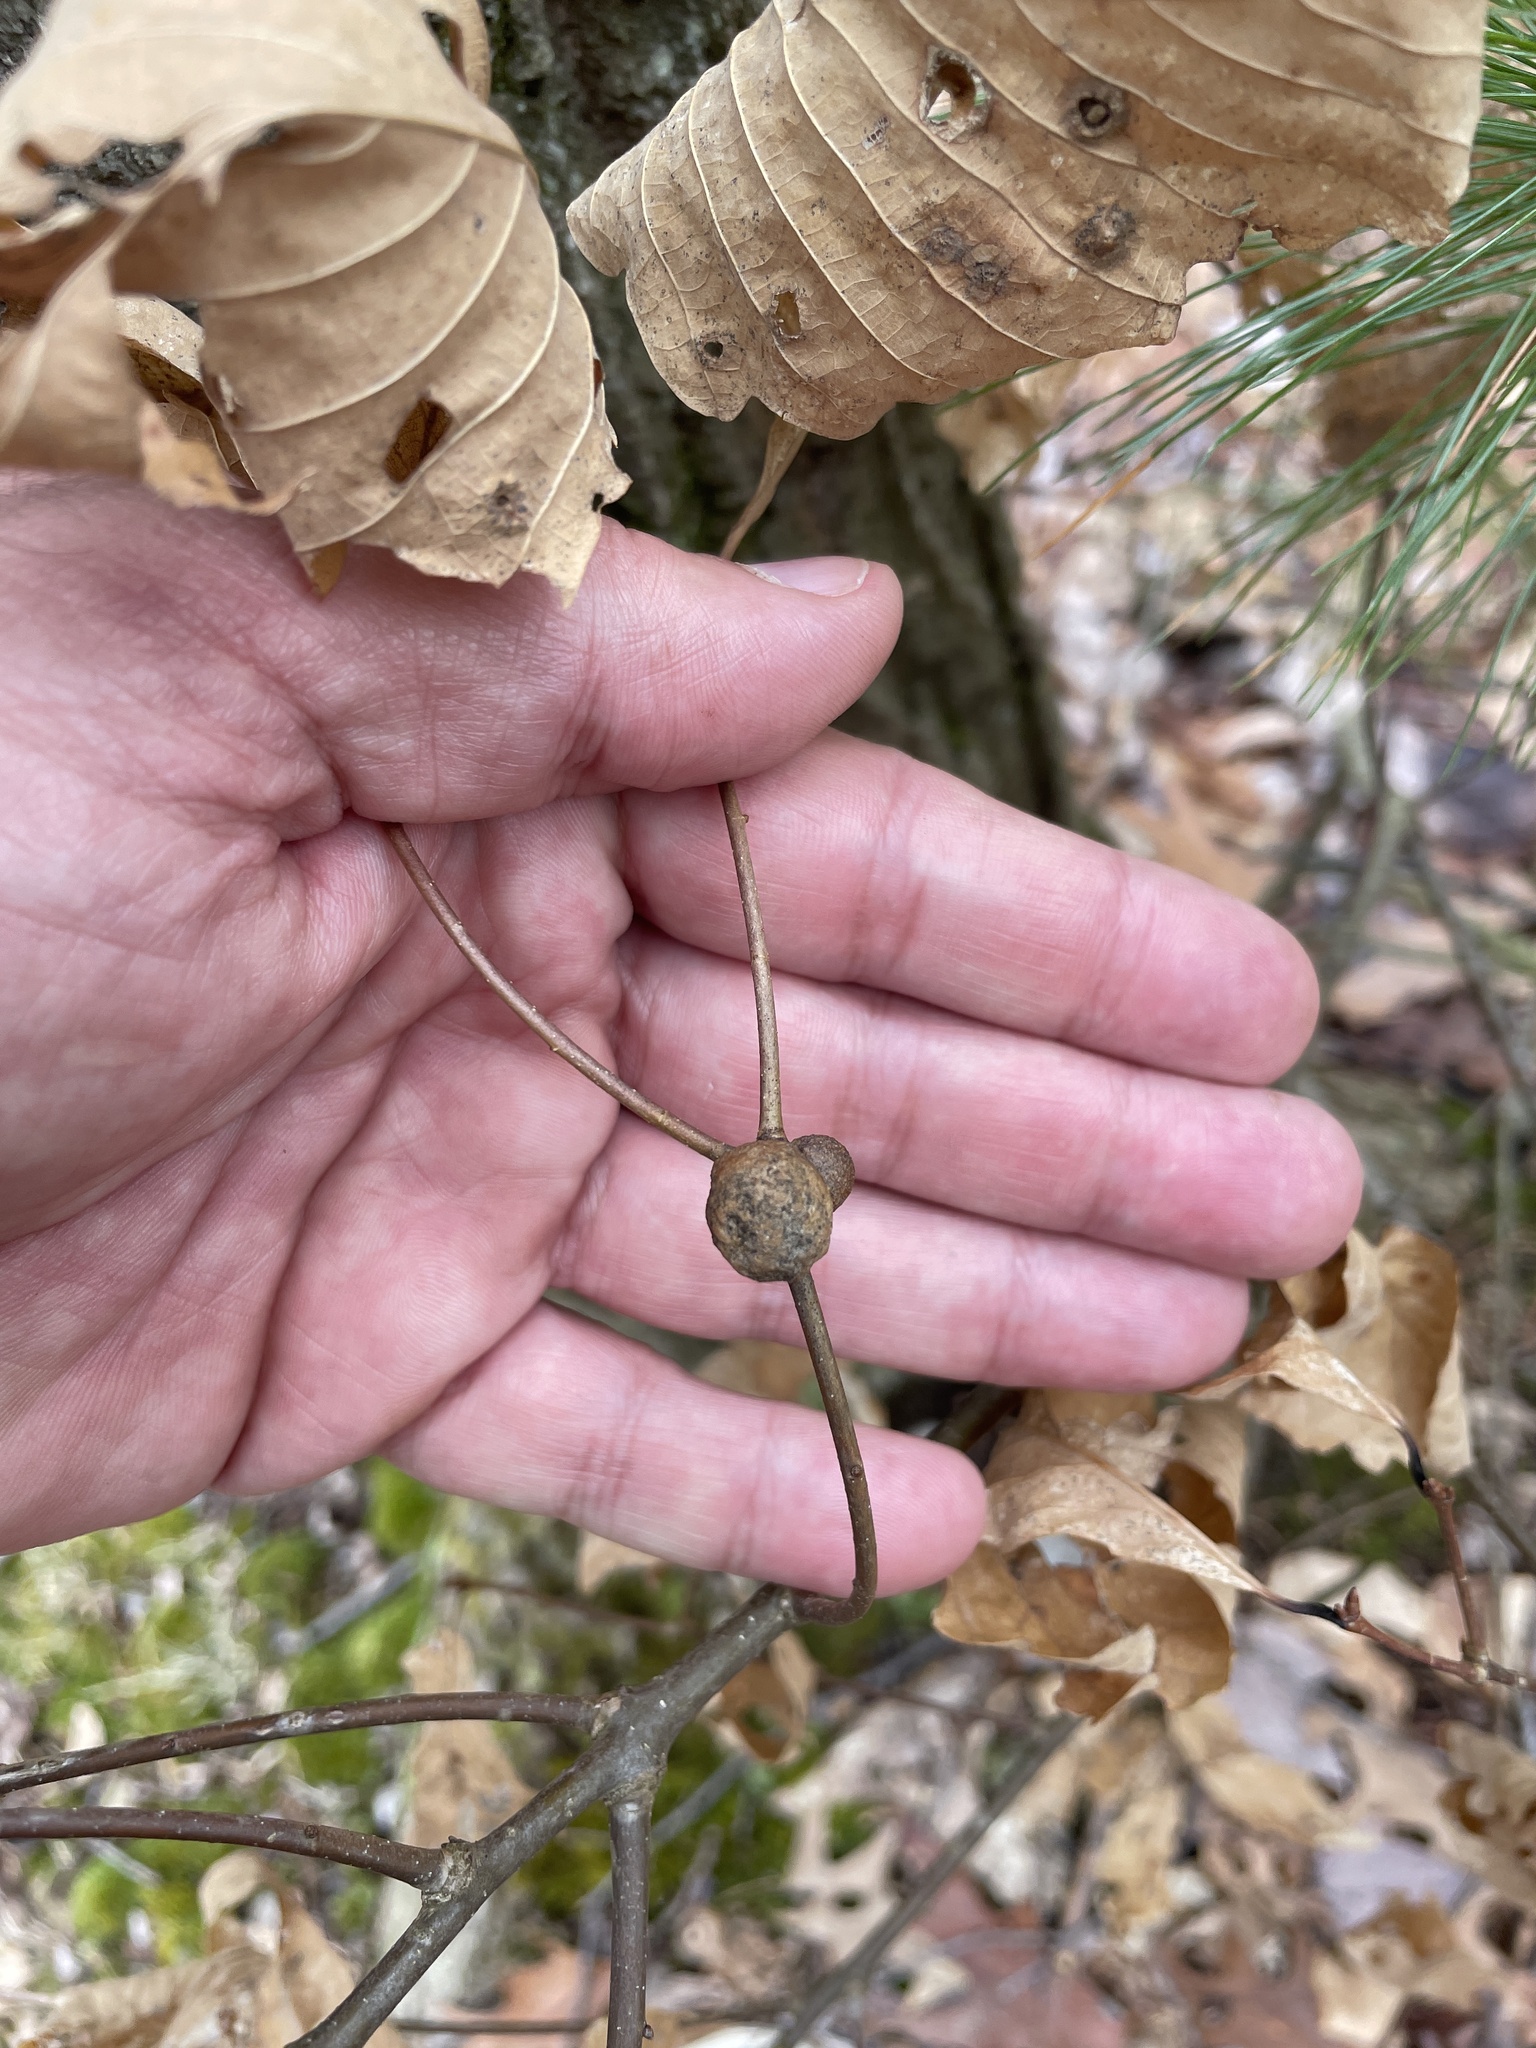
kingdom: Animalia
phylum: Arthropoda
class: Insecta
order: Hymenoptera
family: Cynipidae
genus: Disholcaspis
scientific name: Disholcaspis quercusglobulus
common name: Round bullet gall wasp
